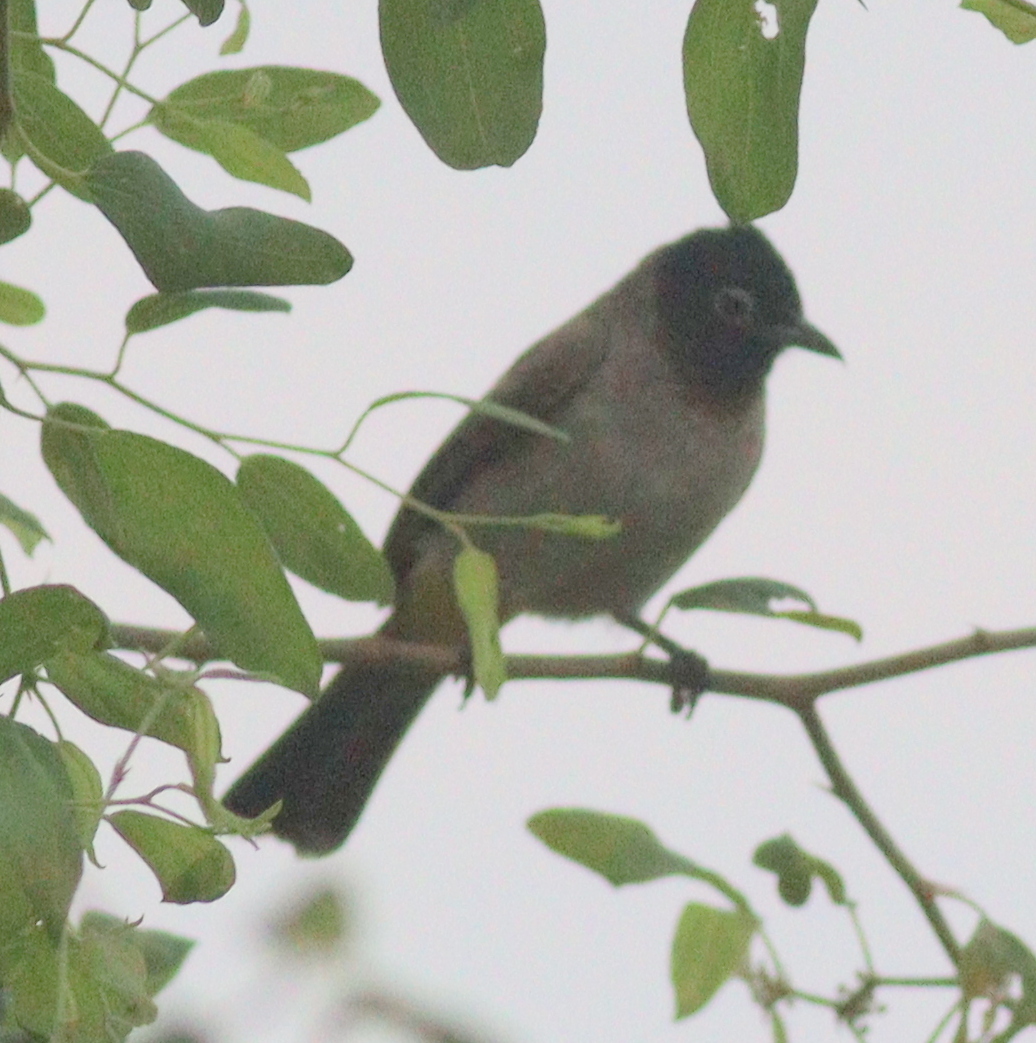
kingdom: Animalia
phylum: Chordata
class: Aves
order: Passeriformes
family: Pycnonotidae
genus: Pycnonotus
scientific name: Pycnonotus xanthopygos
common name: White-spectacled bulbul
